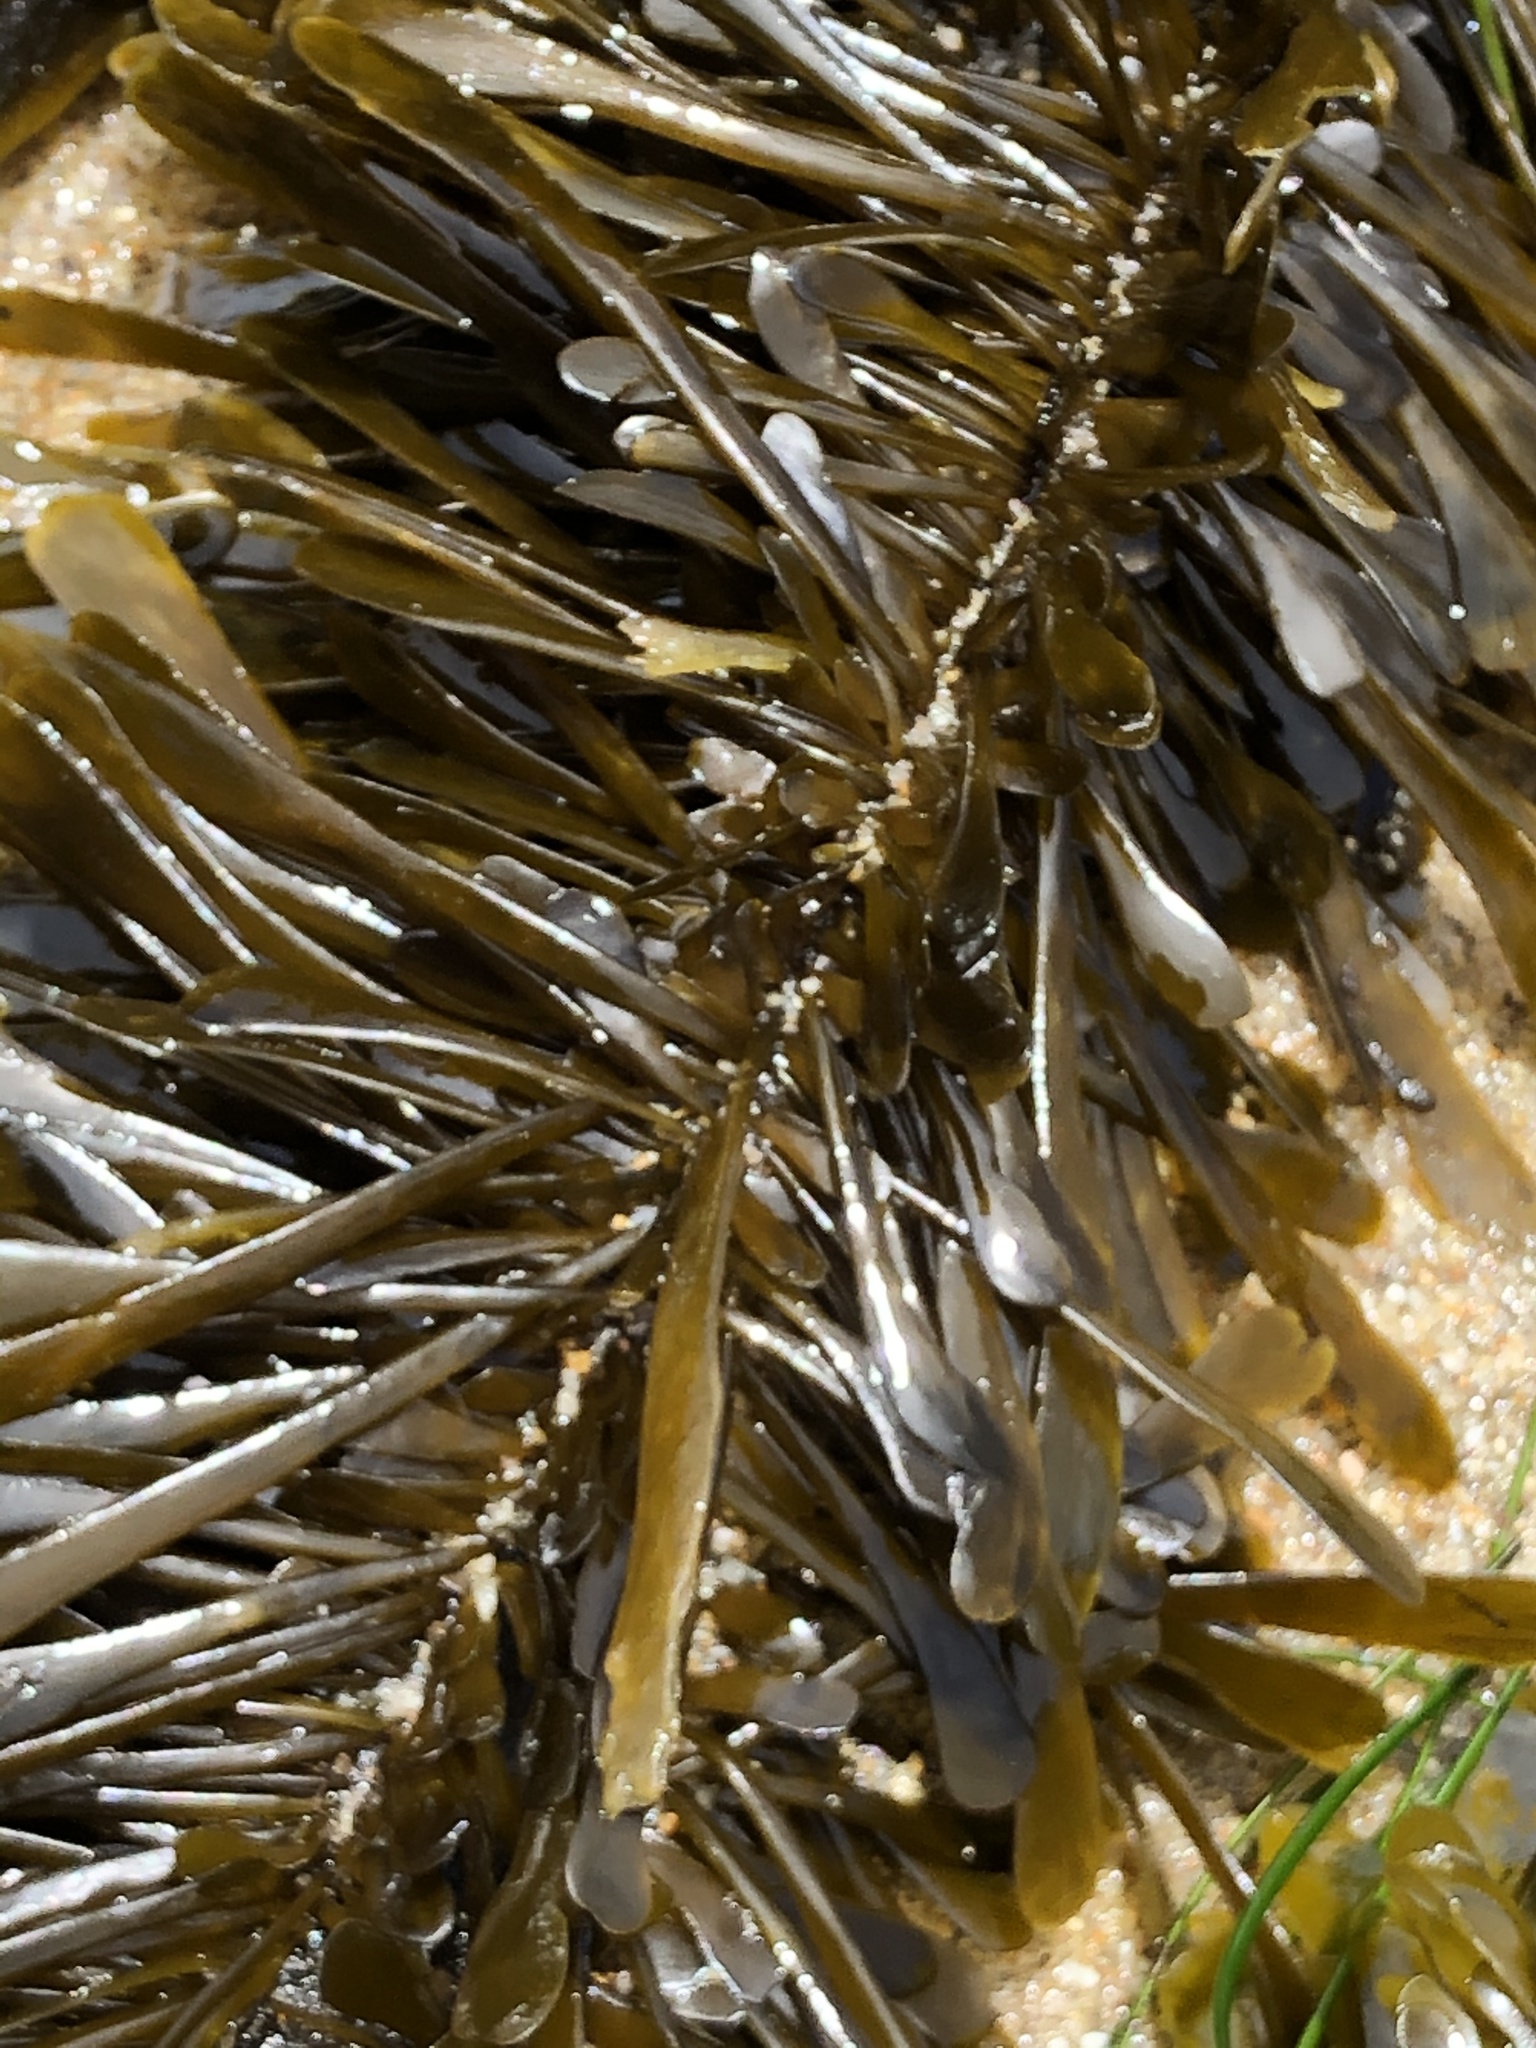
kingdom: Chromista
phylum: Ochrophyta
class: Phaeophyceae
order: Laminariales
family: Lessoniaceae
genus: Egregia
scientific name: Egregia menziesii
